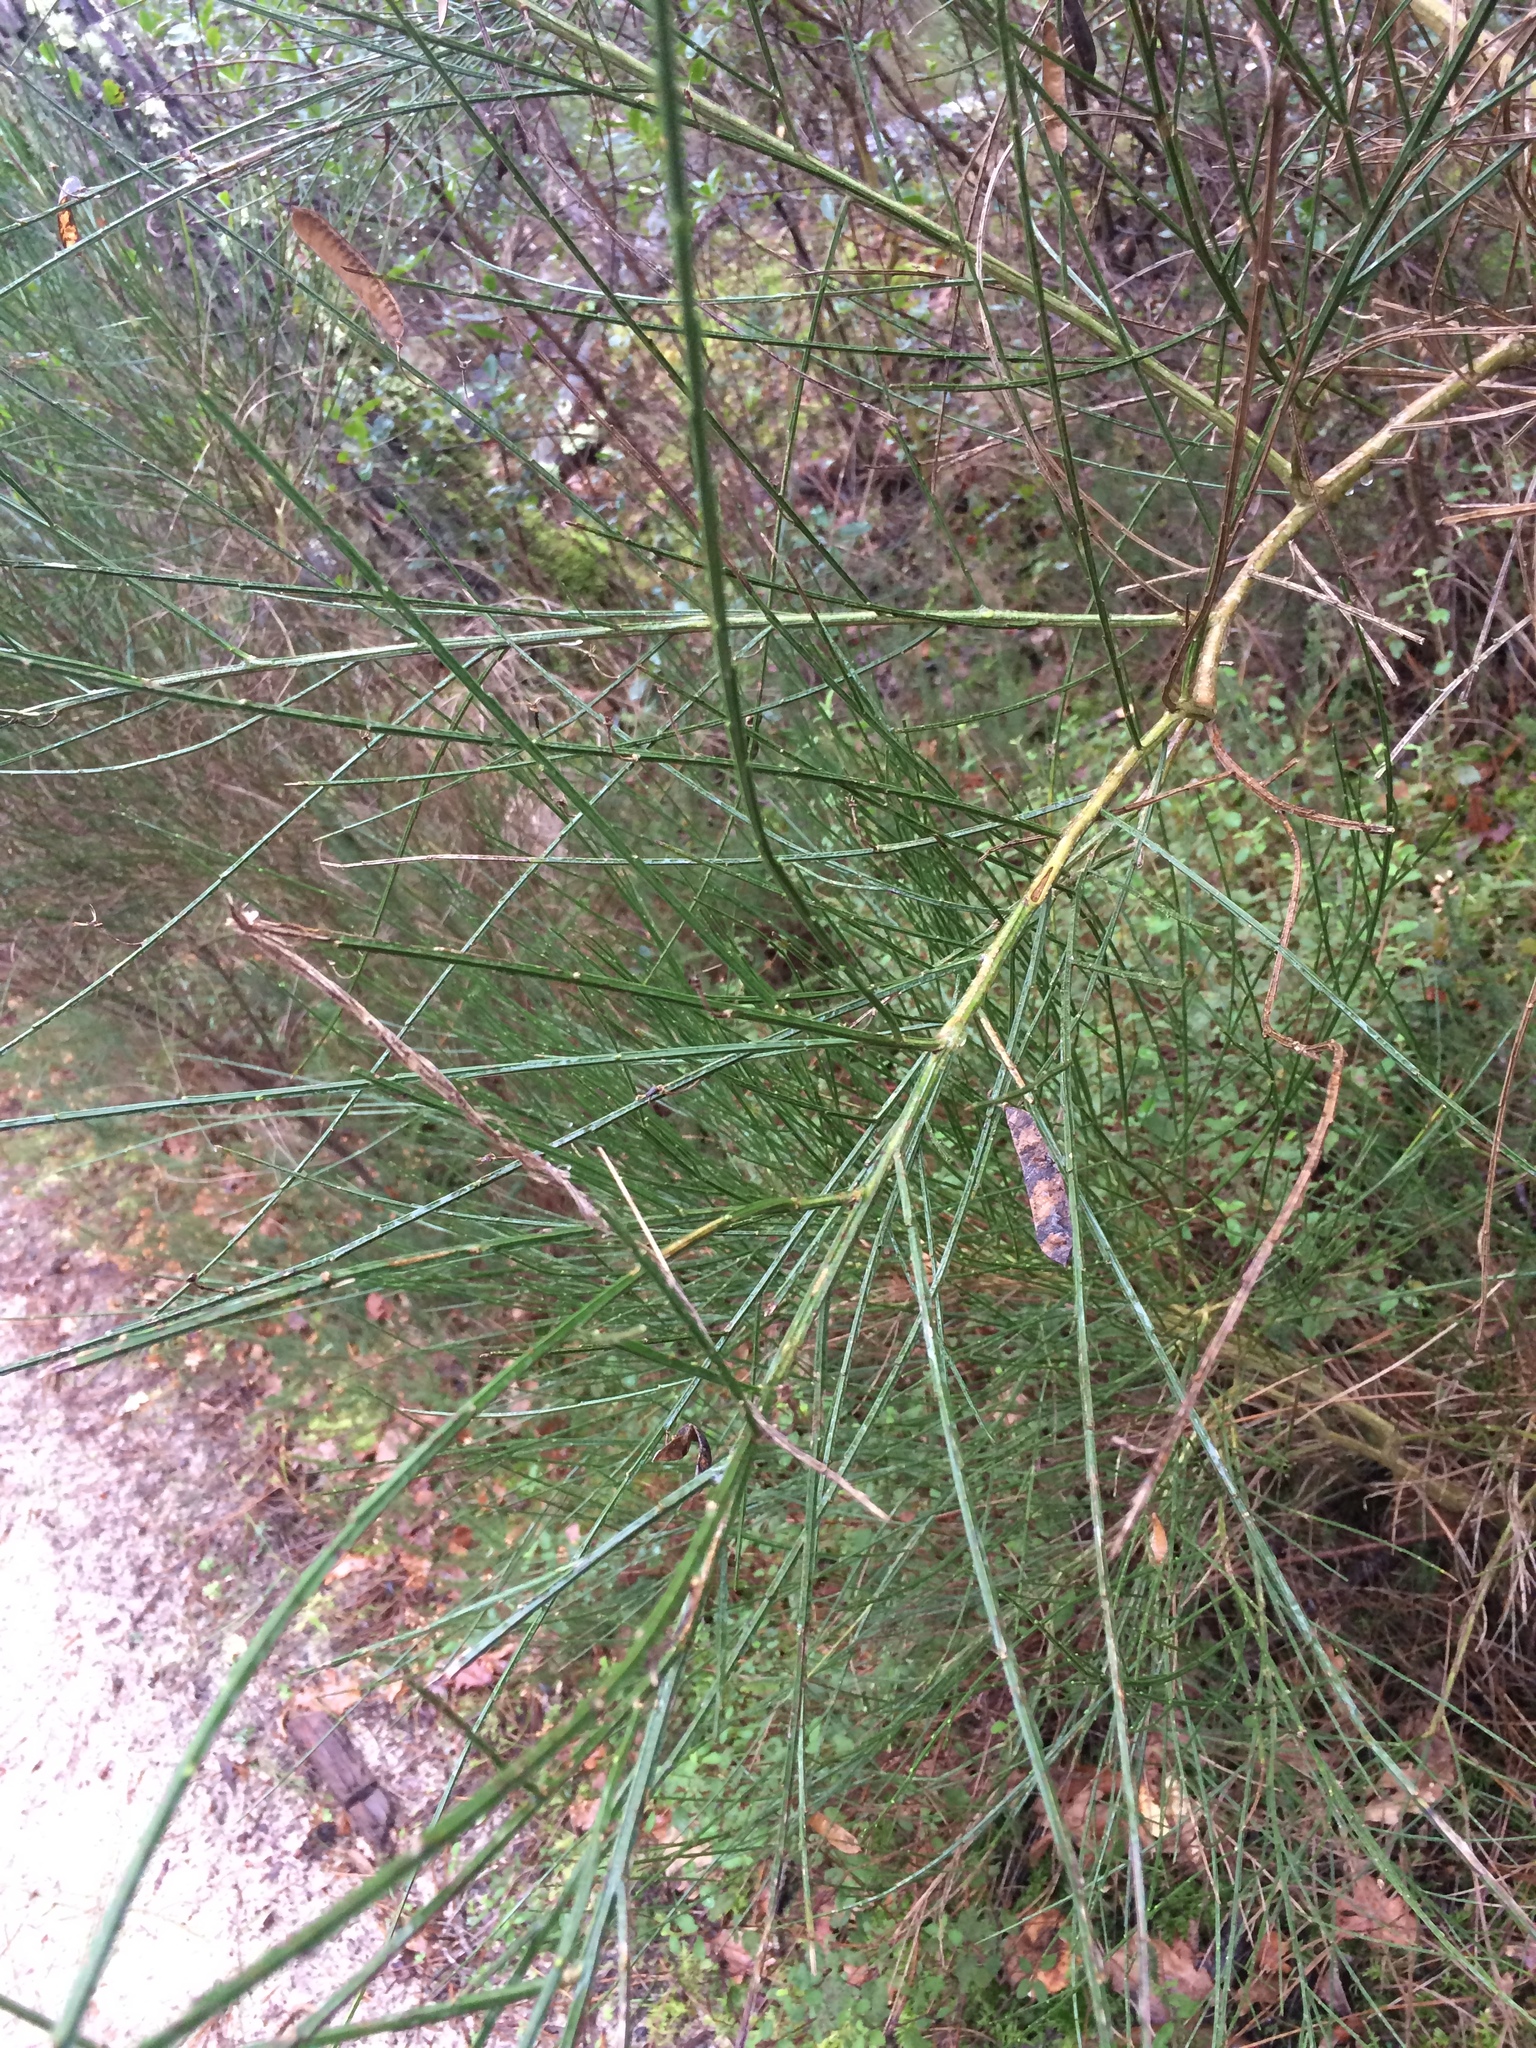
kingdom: Plantae
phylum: Tracheophyta
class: Magnoliopsida
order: Fabales
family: Fabaceae
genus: Cytisus
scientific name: Cytisus scoparius
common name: Scotch broom
